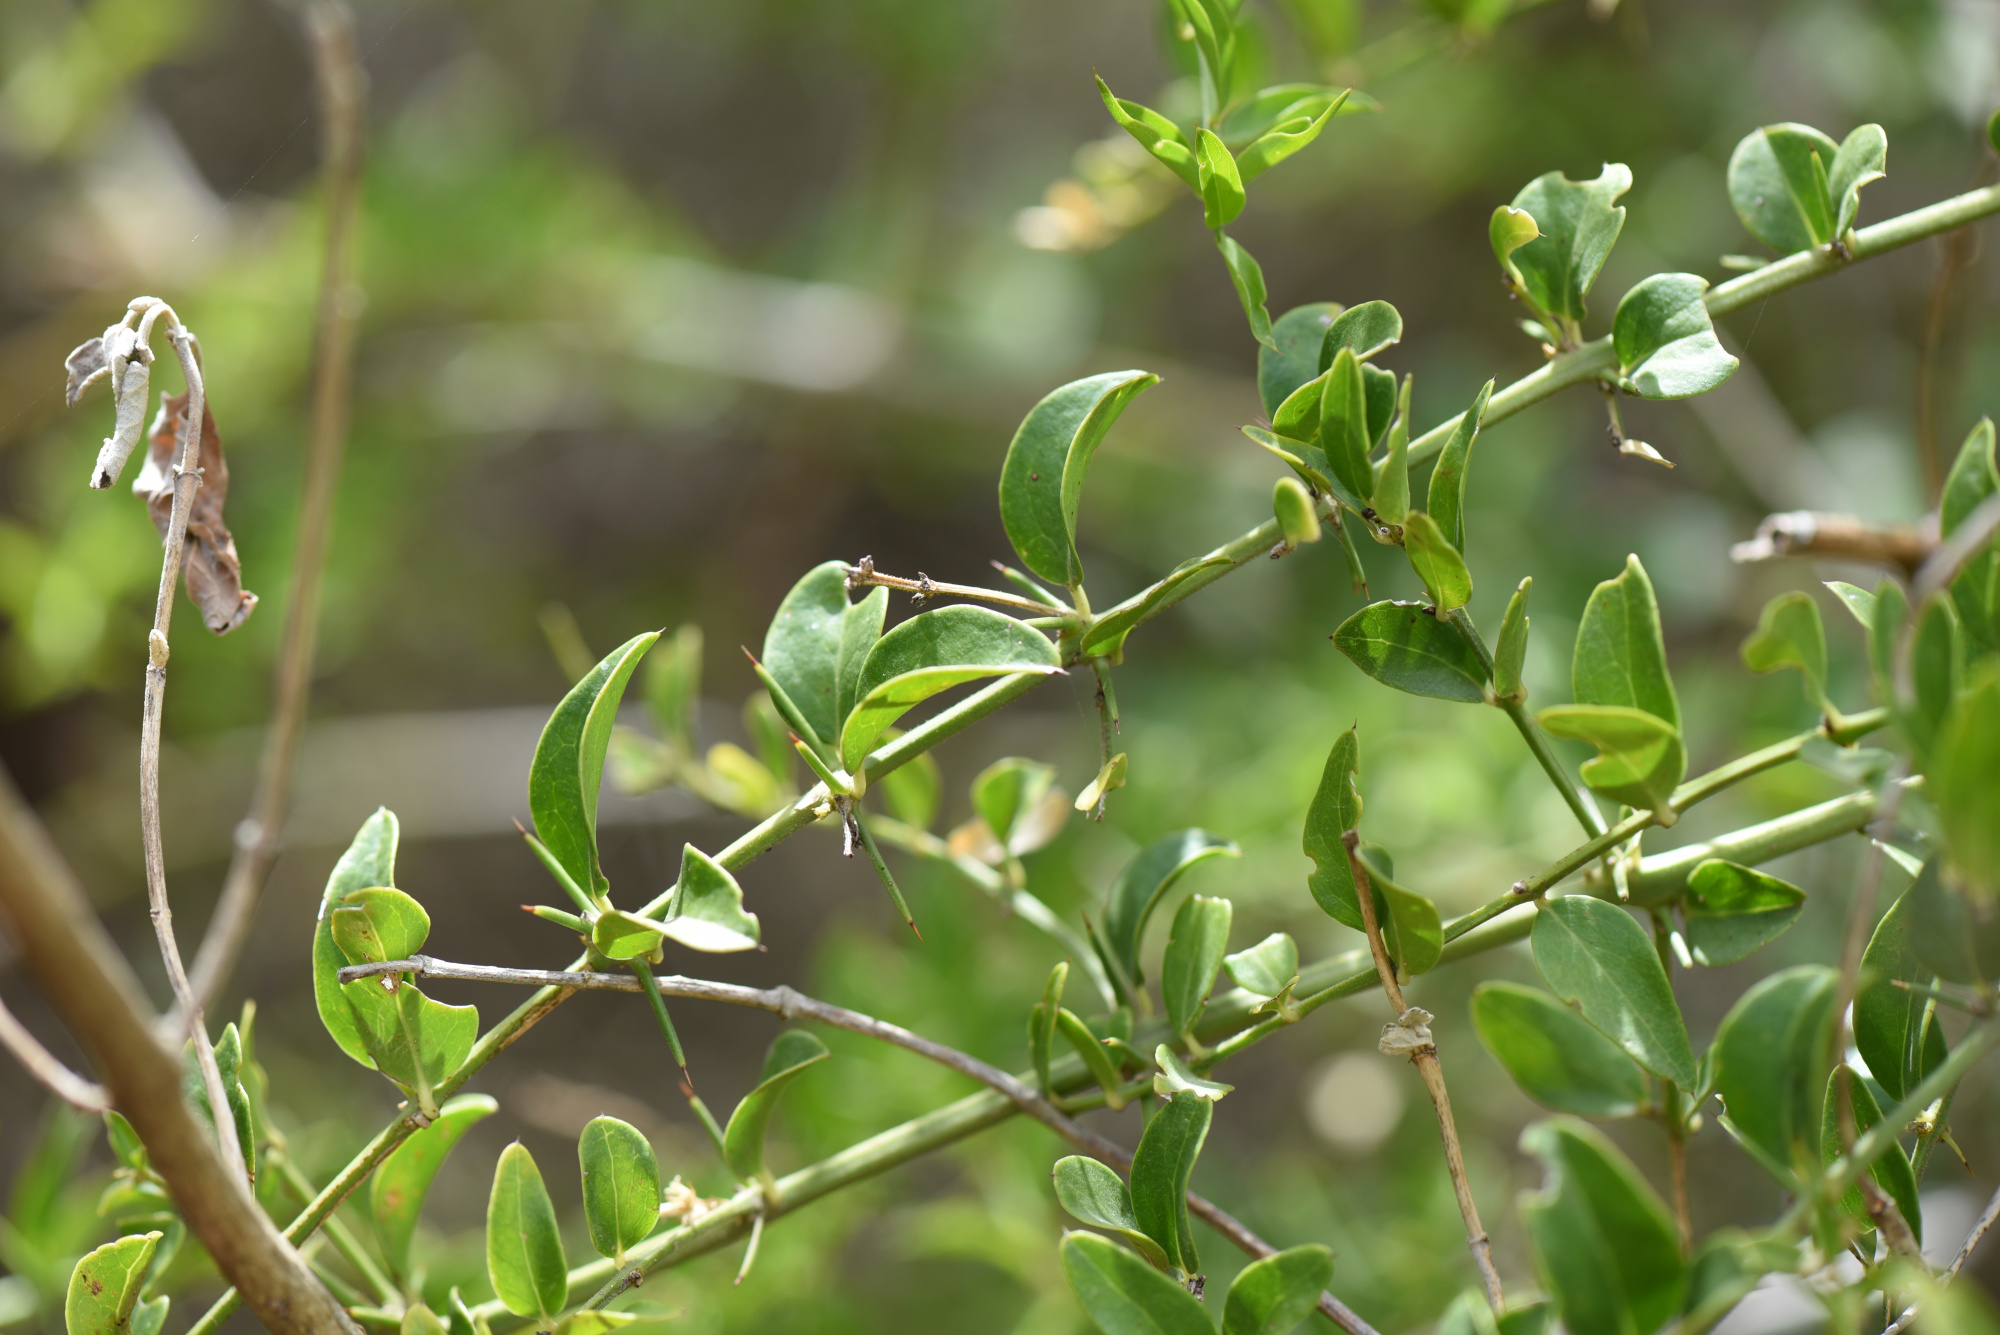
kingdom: Plantae
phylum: Tracheophyta
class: Magnoliopsida
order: Brassicales
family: Salvadoraceae
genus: Azima
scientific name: Azima tetracantha
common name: Needle bush
